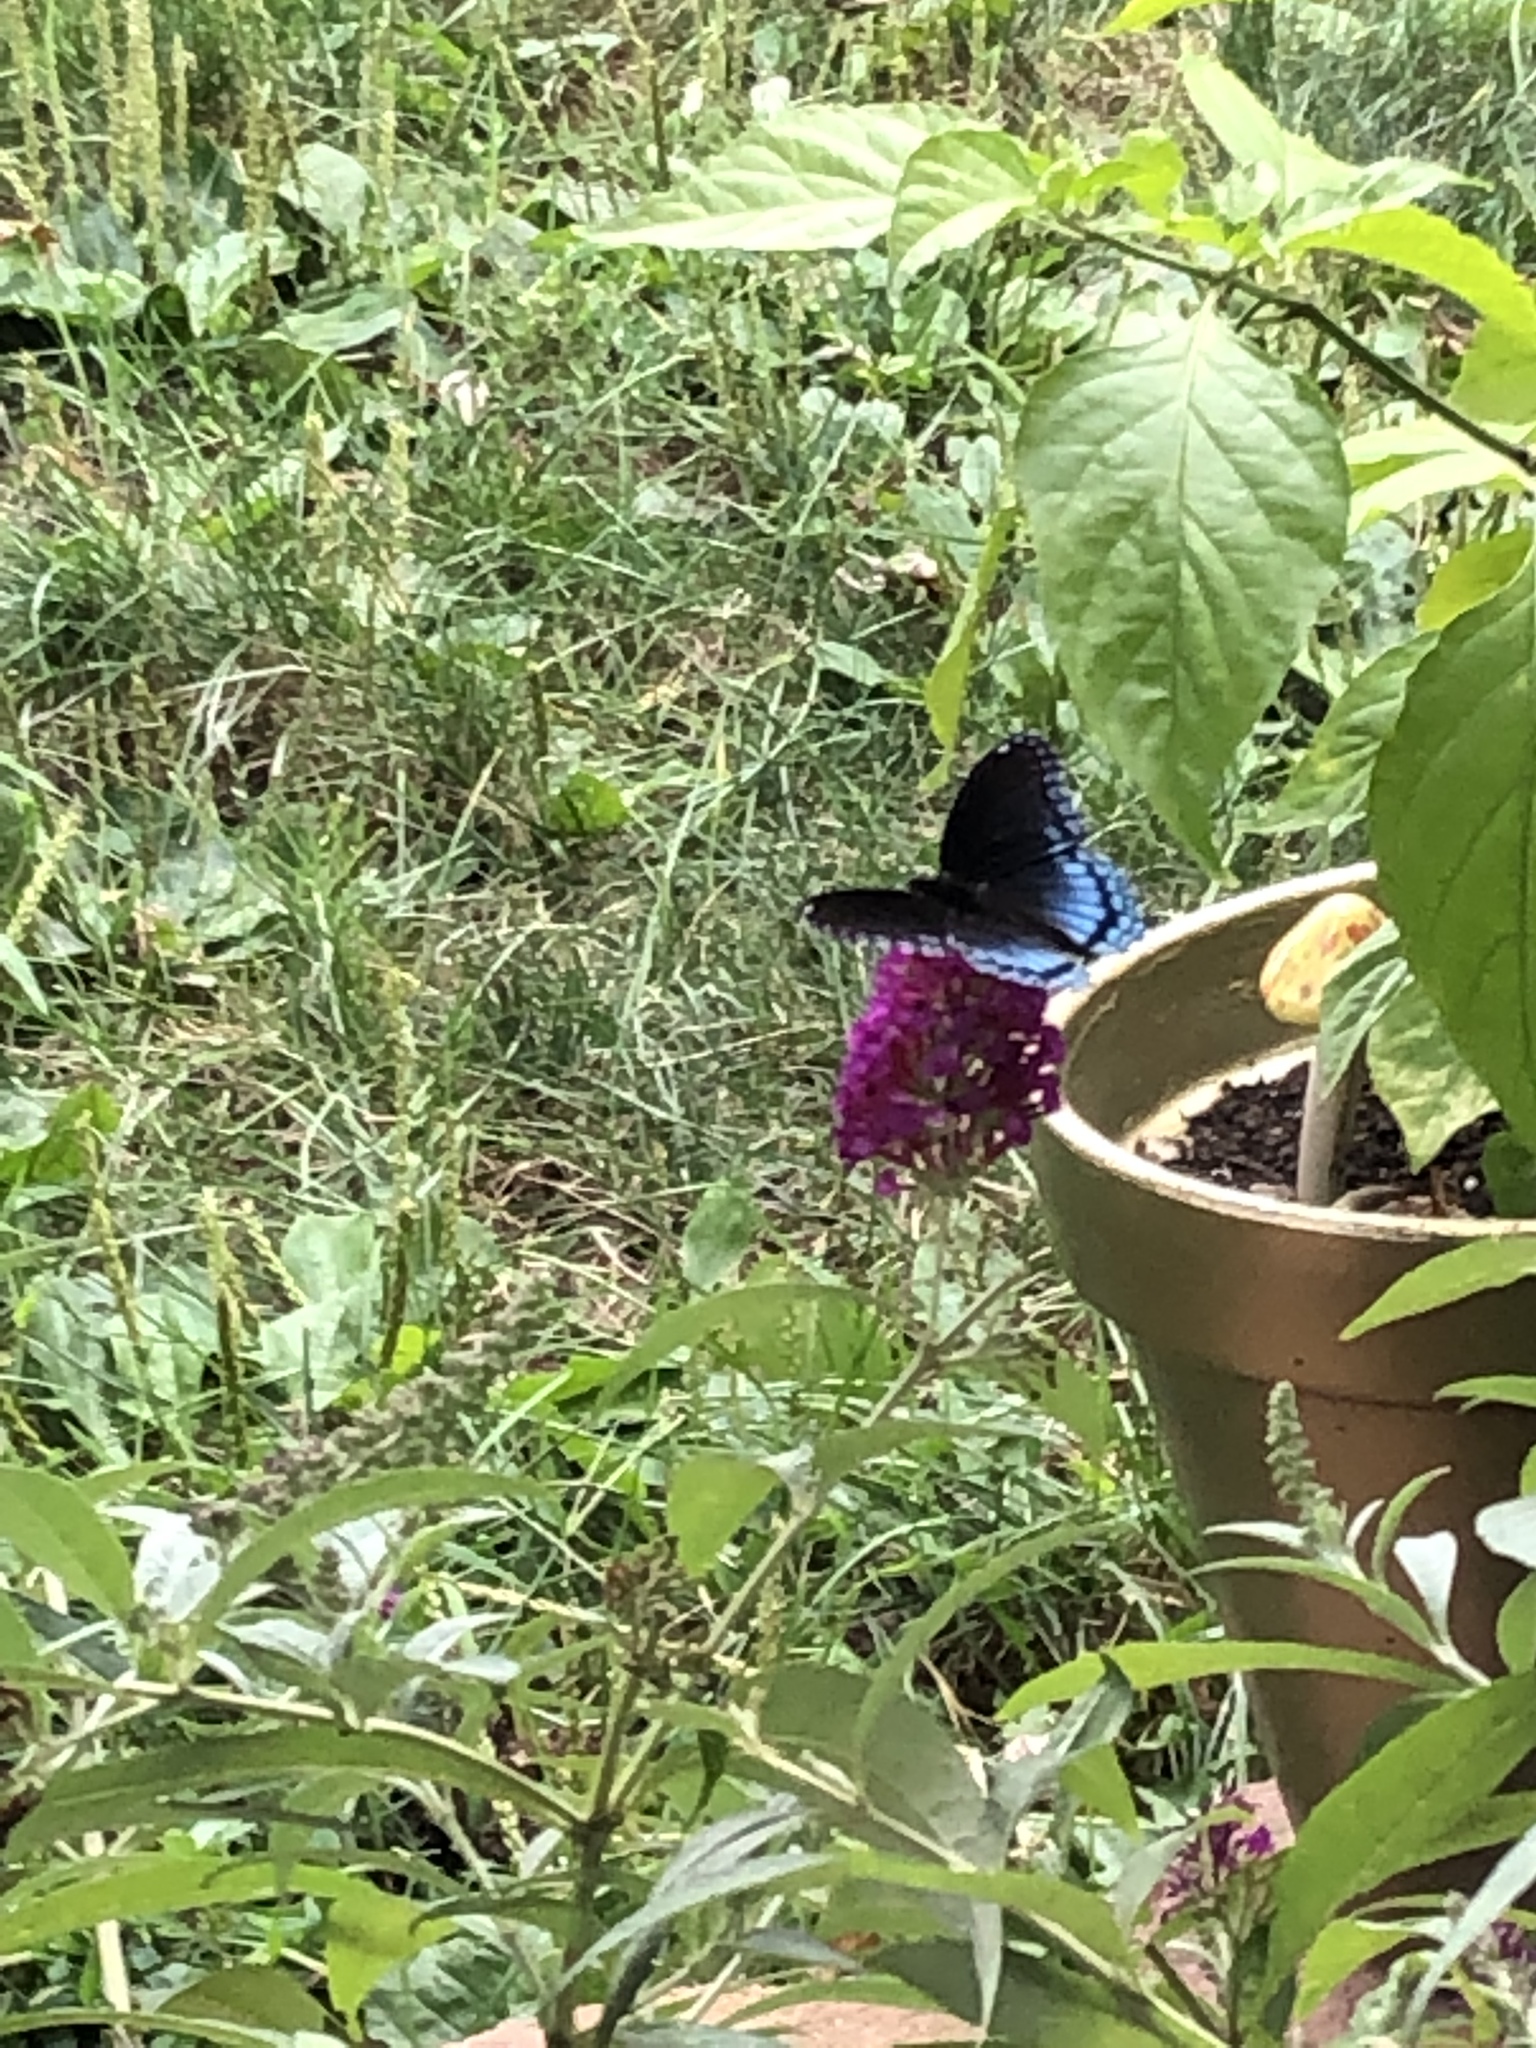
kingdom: Animalia
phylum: Arthropoda
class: Insecta
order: Lepidoptera
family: Nymphalidae
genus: Limenitis
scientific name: Limenitis arthemis
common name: Red-spotted admiral
